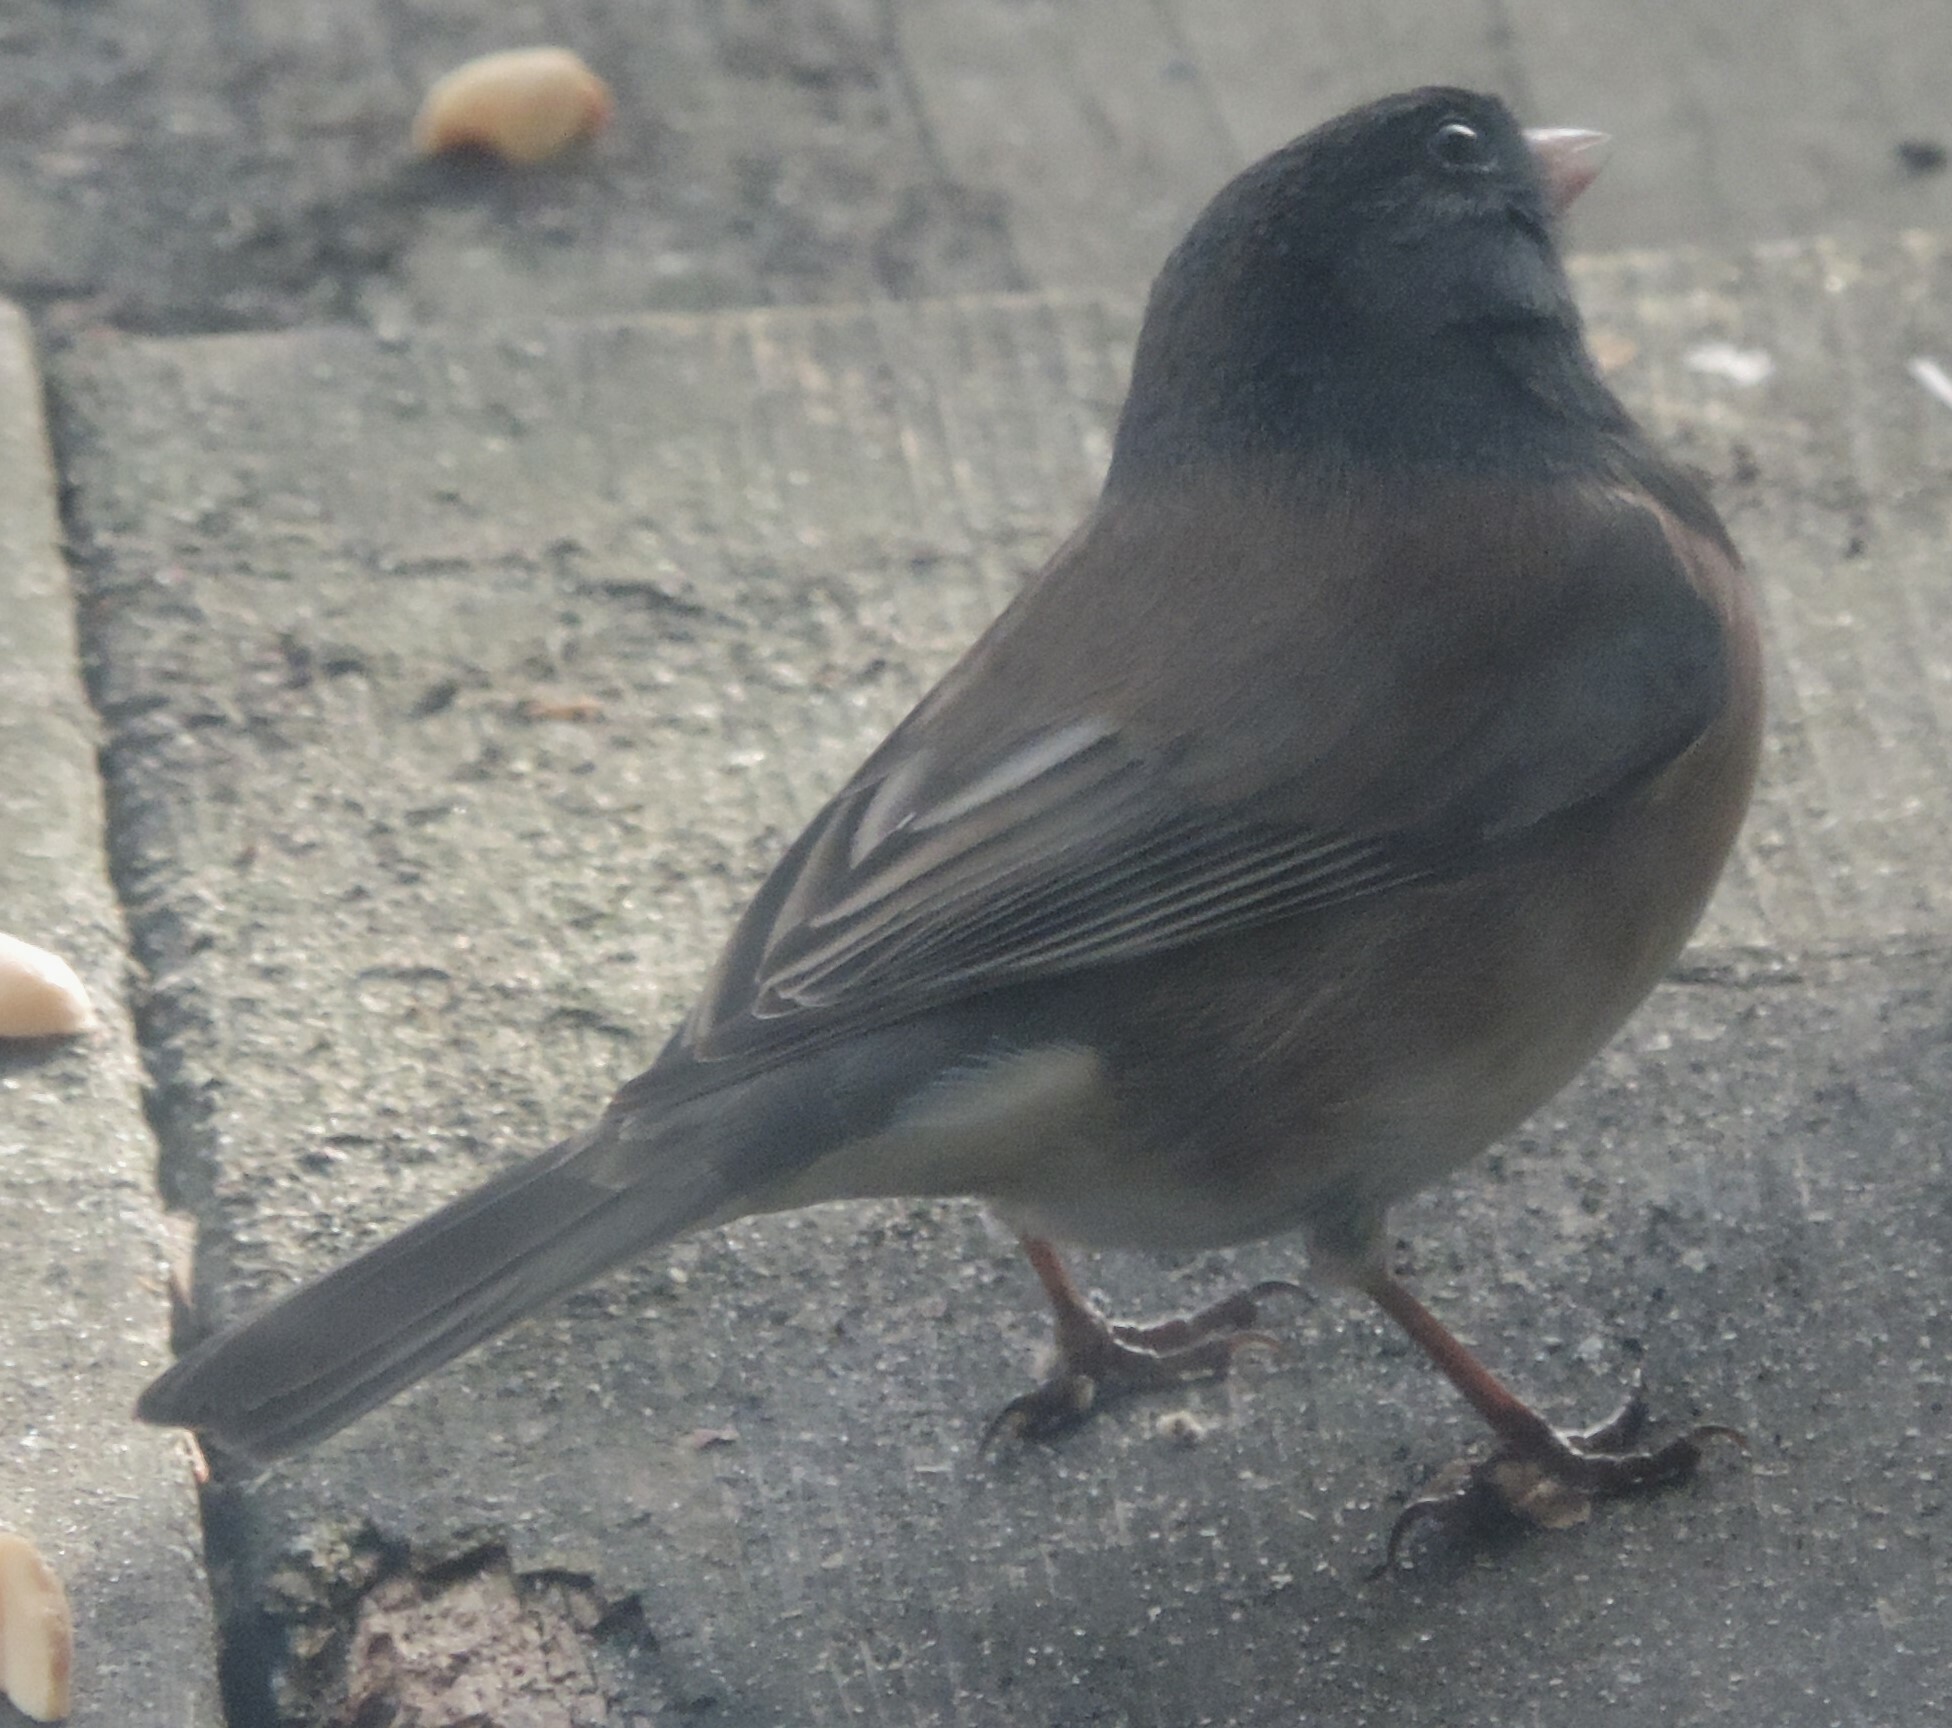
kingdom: Animalia
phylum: Chordata
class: Aves
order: Passeriformes
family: Passerellidae
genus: Junco
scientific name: Junco hyemalis
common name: Dark-eyed junco
